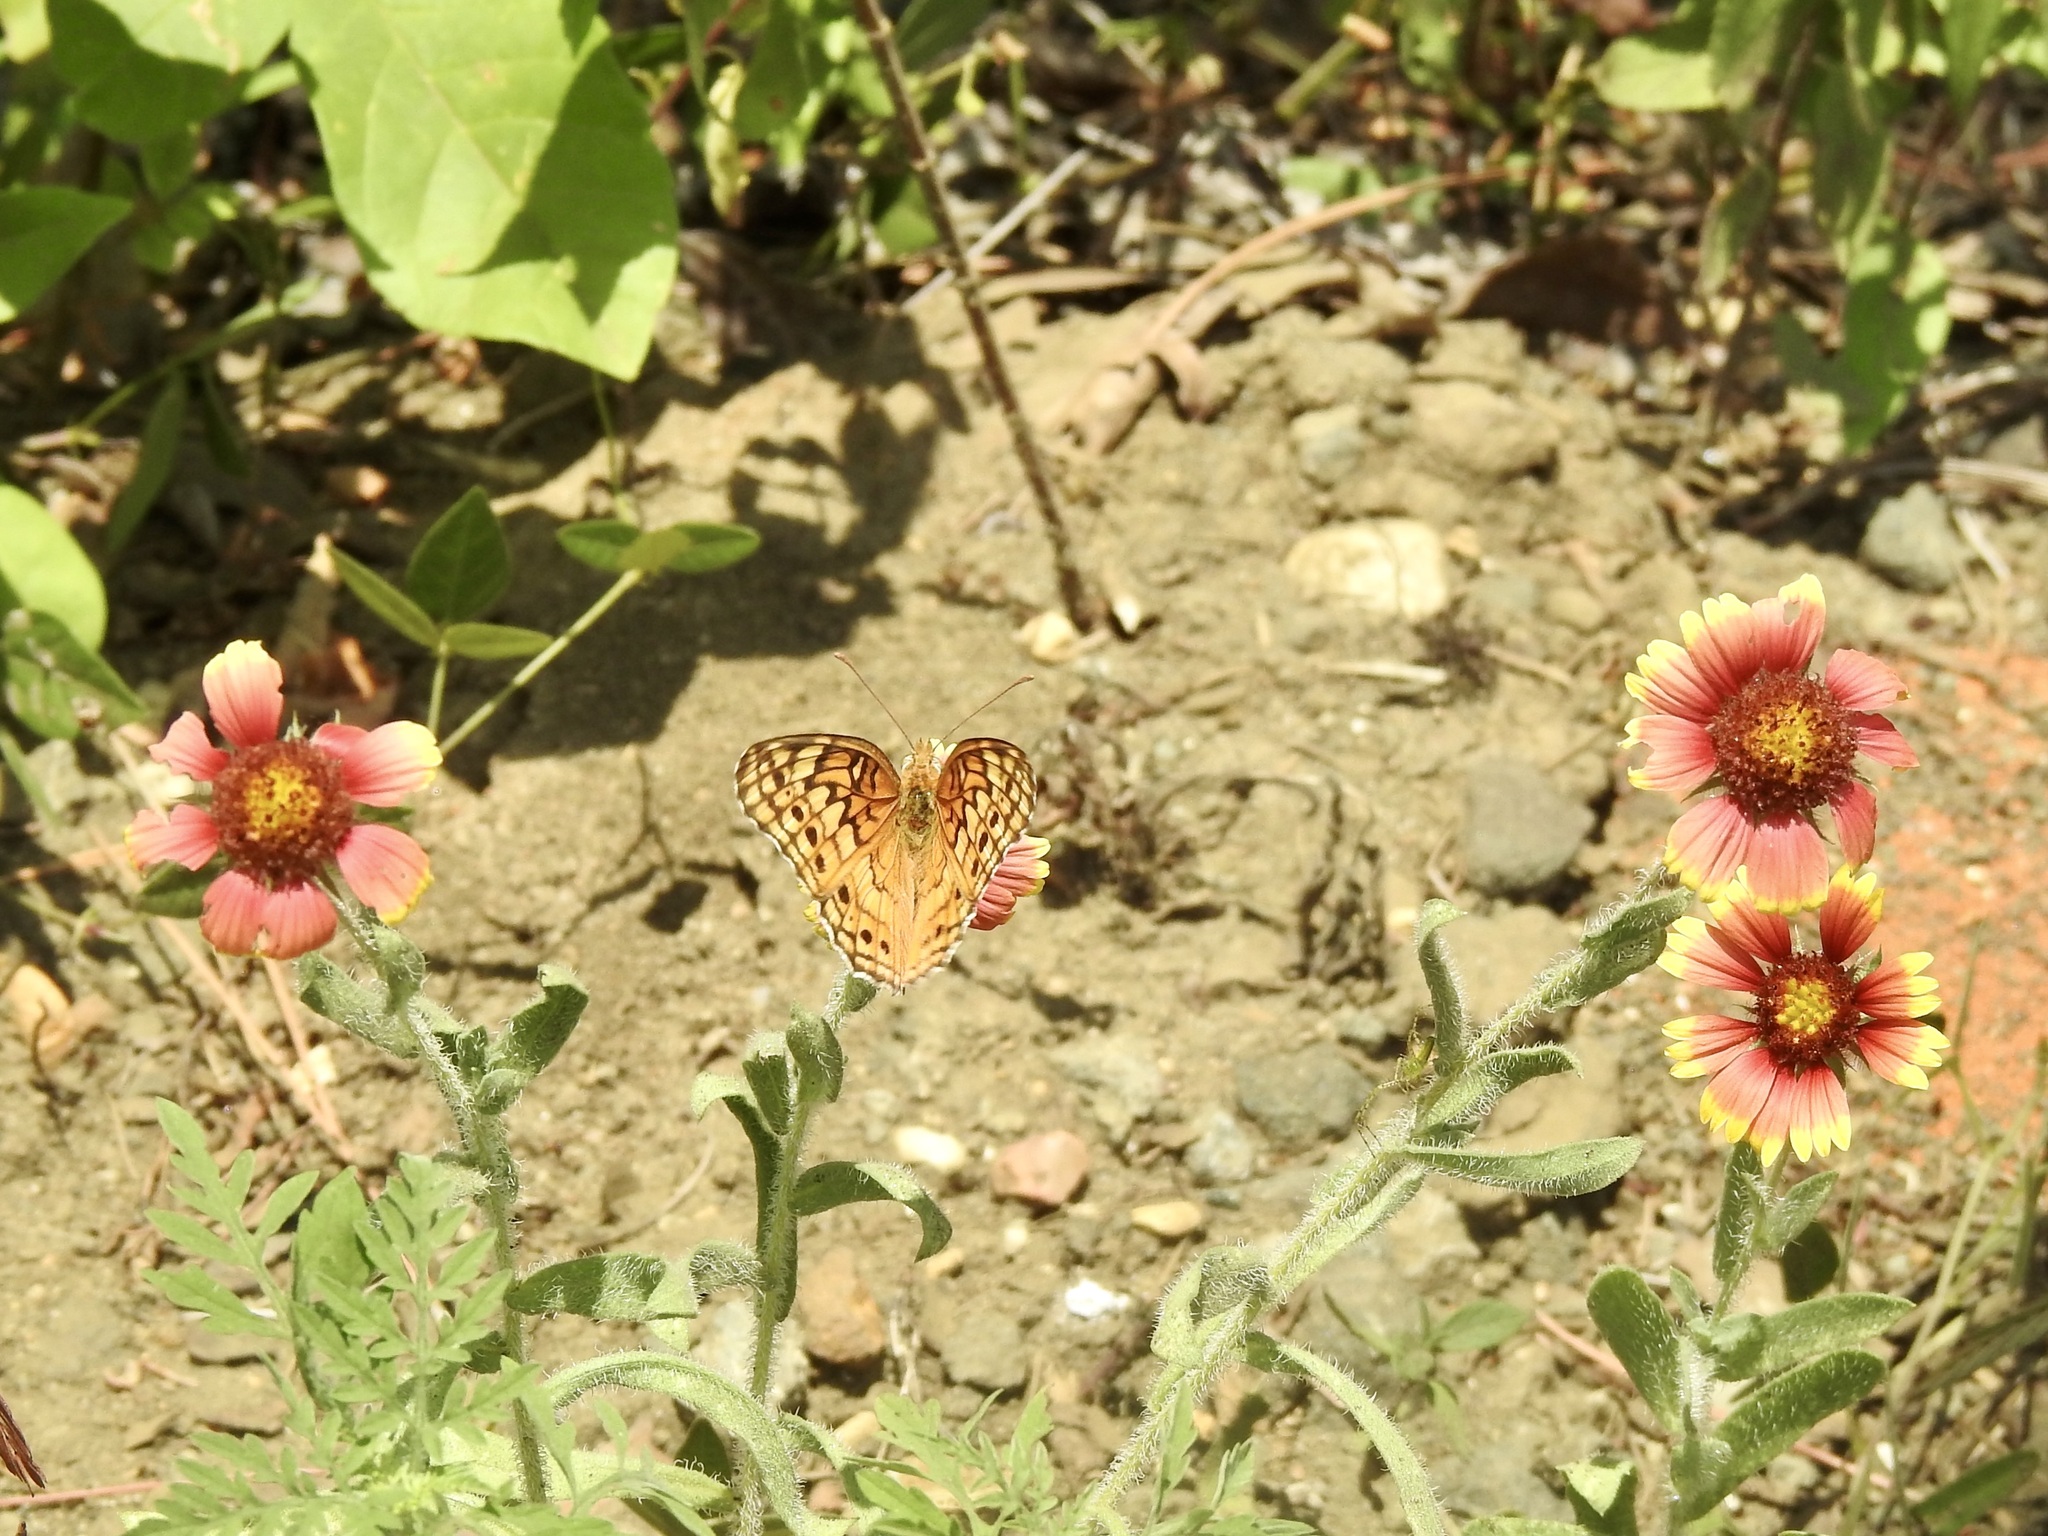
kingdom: Animalia
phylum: Arthropoda
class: Insecta
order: Lepidoptera
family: Nymphalidae
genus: Euptoieta
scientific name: Euptoieta claudia
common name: Variegated fritillary
